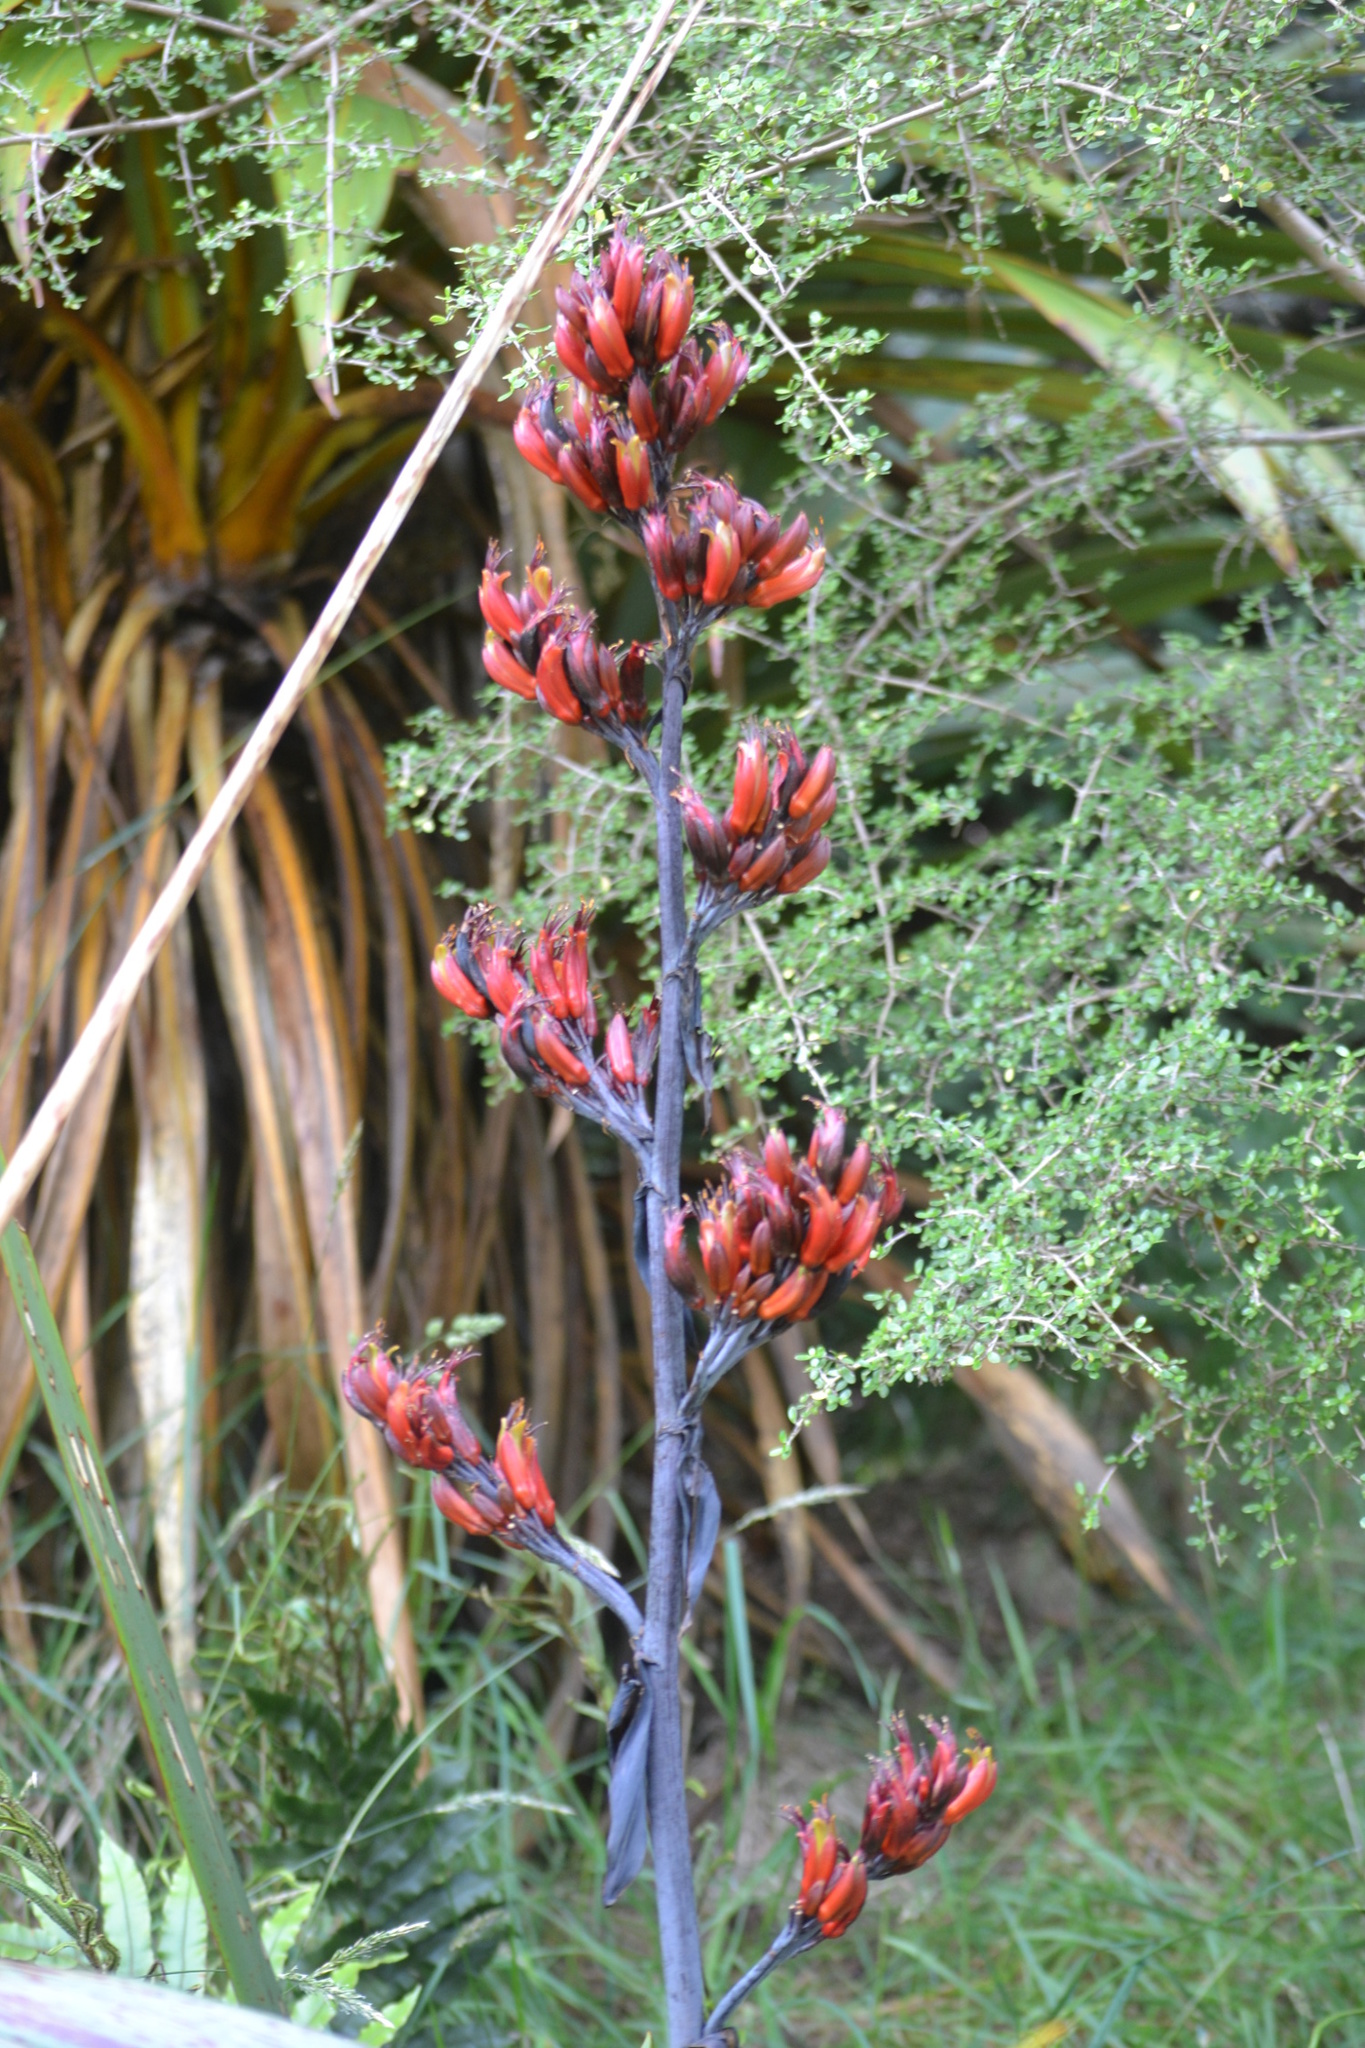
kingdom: Plantae
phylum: Tracheophyta
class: Liliopsida
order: Asparagales
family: Asphodelaceae
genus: Phormium
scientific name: Phormium tenax
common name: New zealand flax
